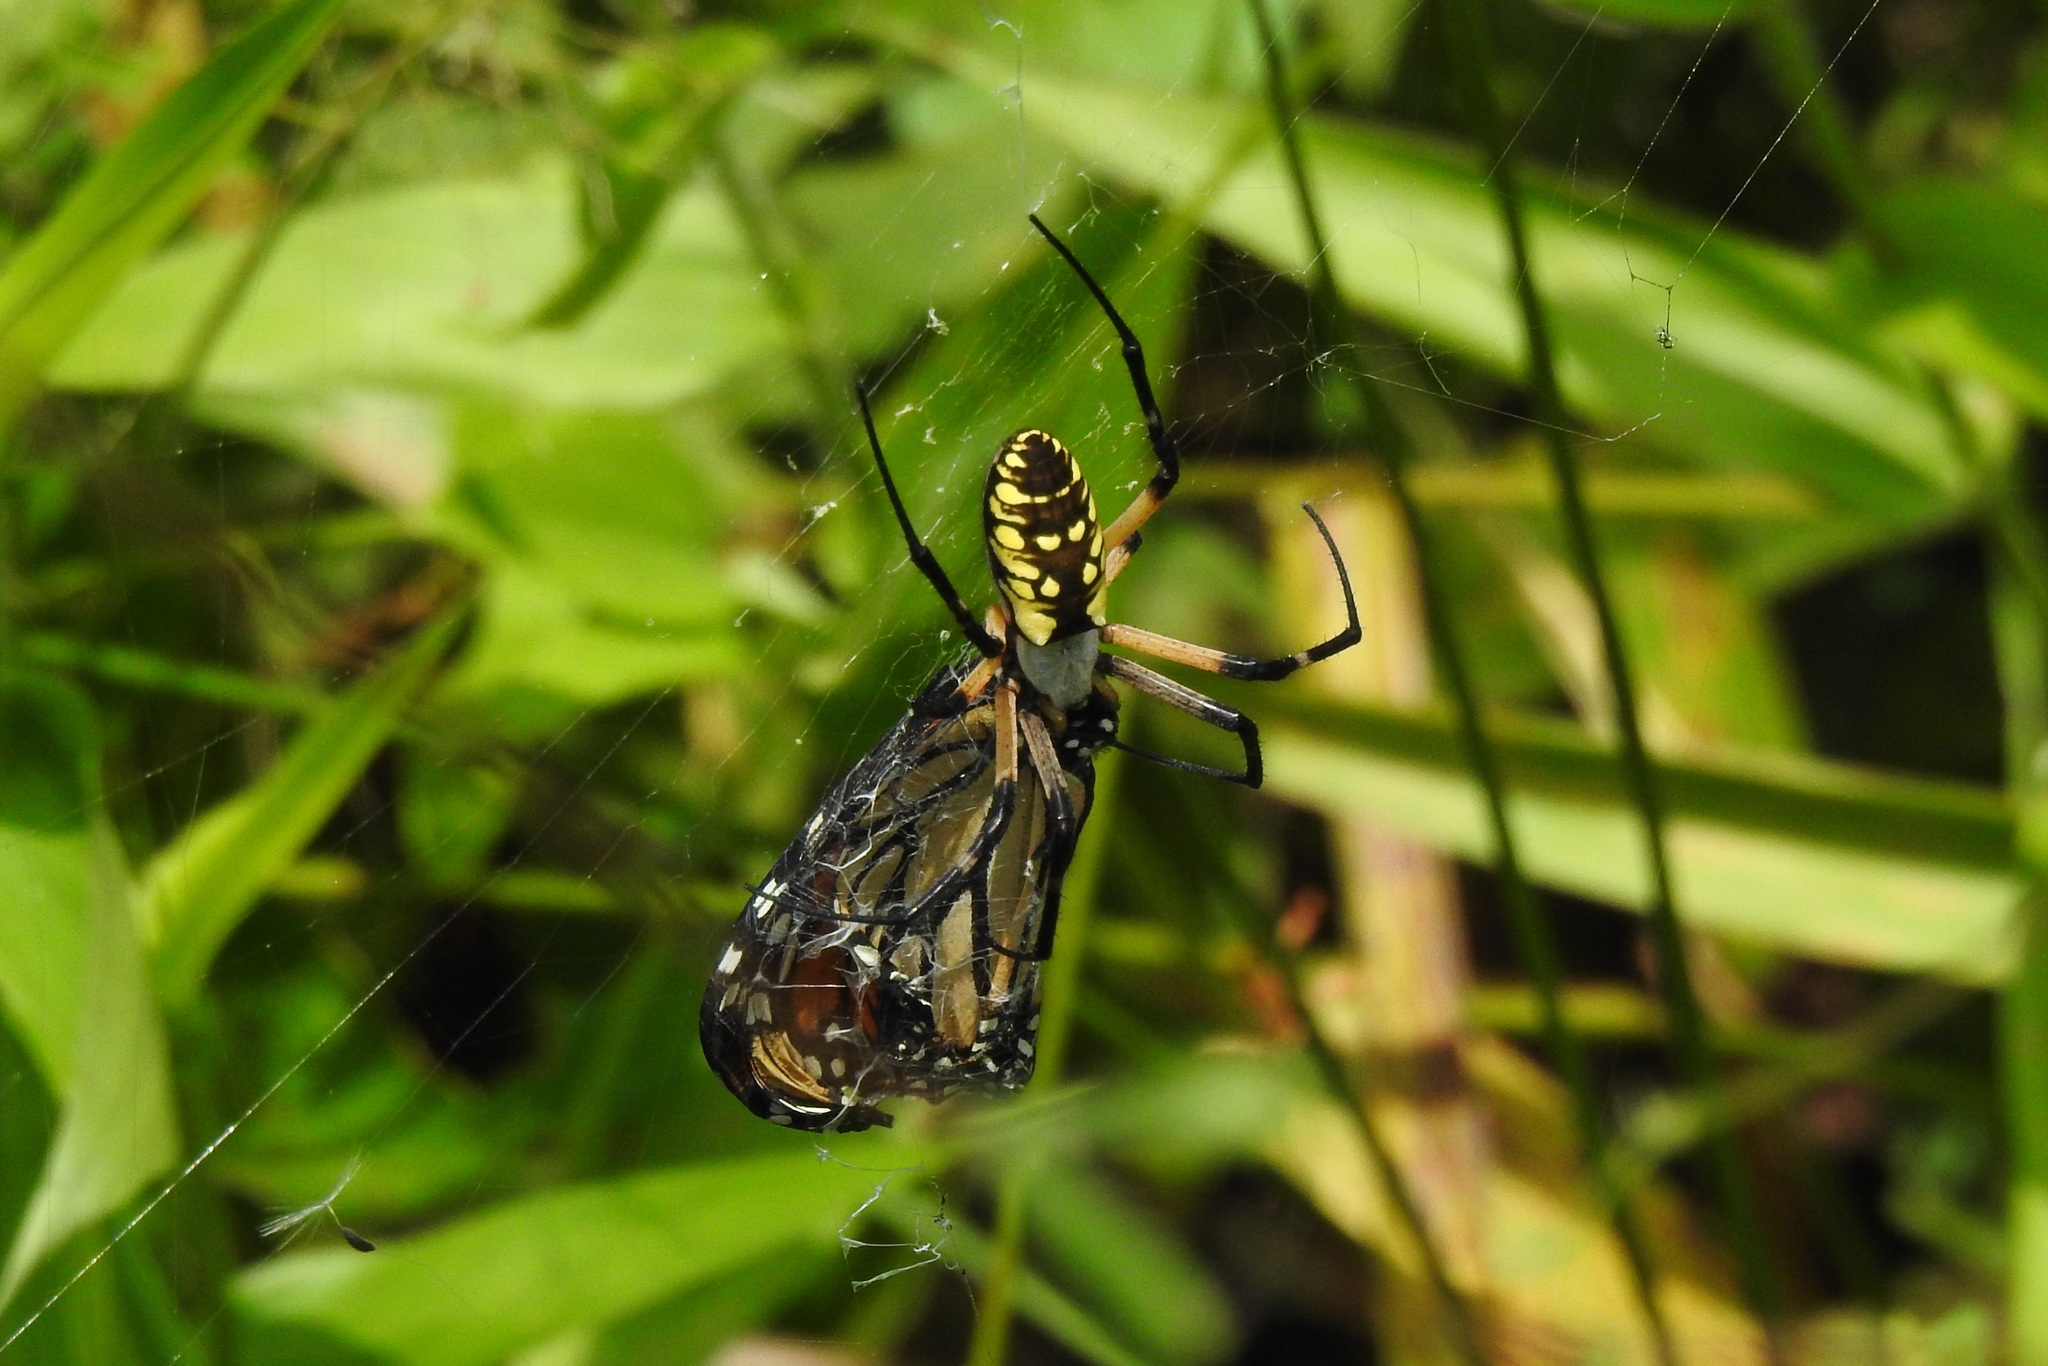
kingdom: Animalia
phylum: Arthropoda
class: Arachnida
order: Araneae
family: Araneidae
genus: Argiope
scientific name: Argiope aurantia
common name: Orb weavers
